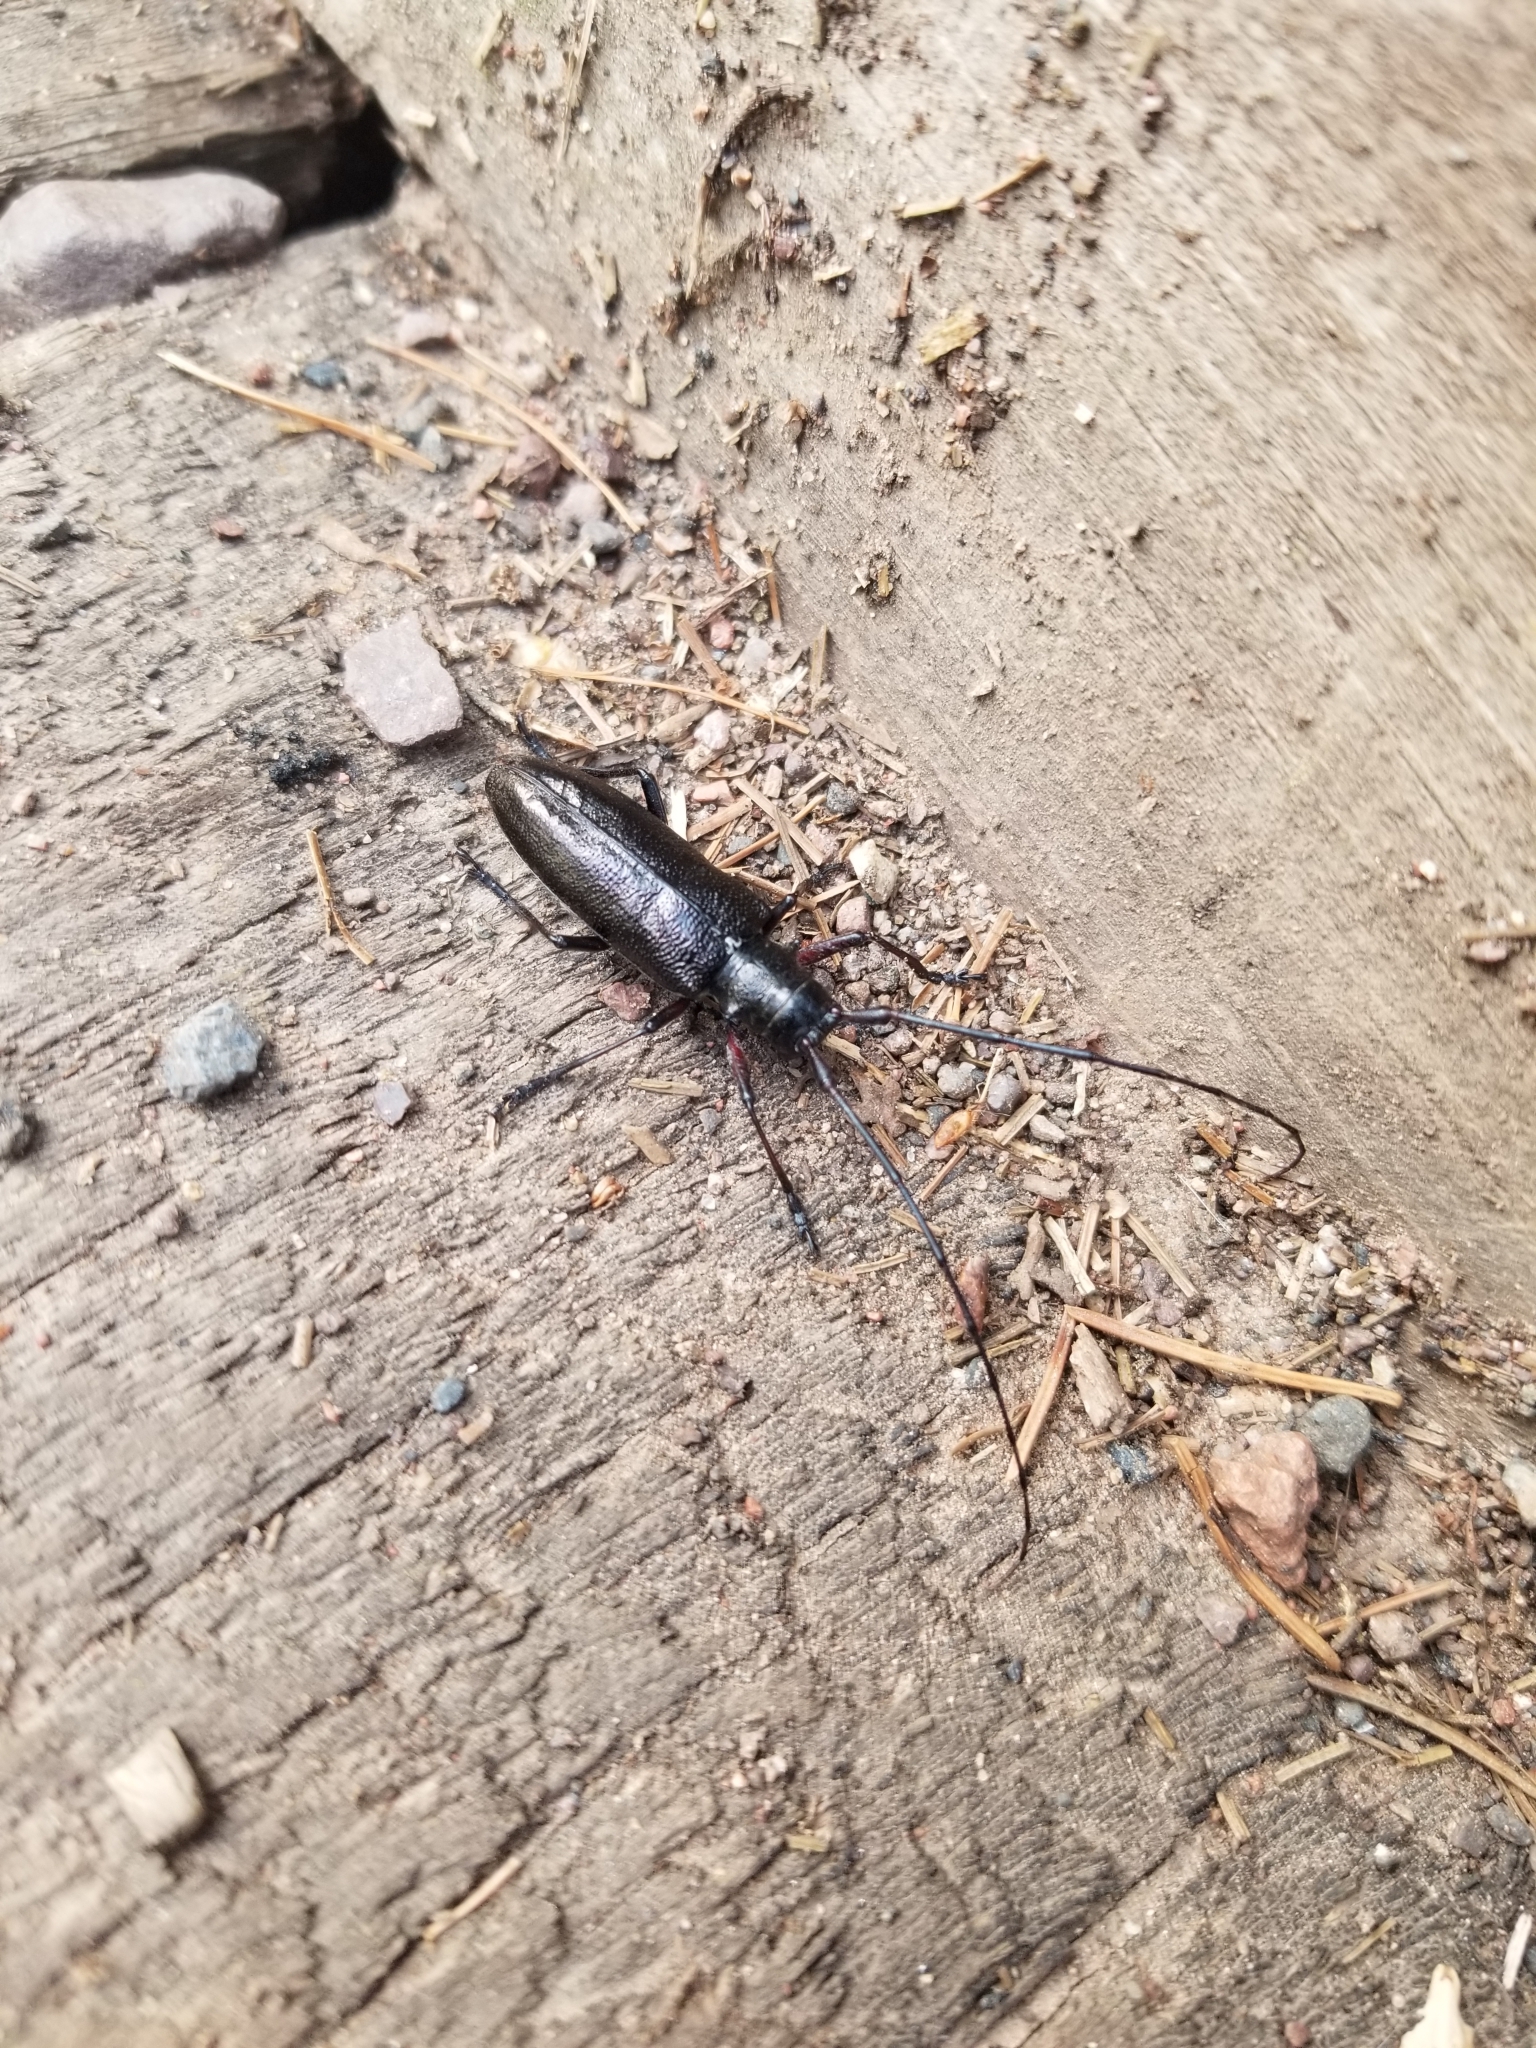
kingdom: Animalia
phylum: Arthropoda
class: Insecta
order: Coleoptera
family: Cerambycidae
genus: Monochamus
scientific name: Monochamus scutellatus
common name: White-spotted sawyer beetle
